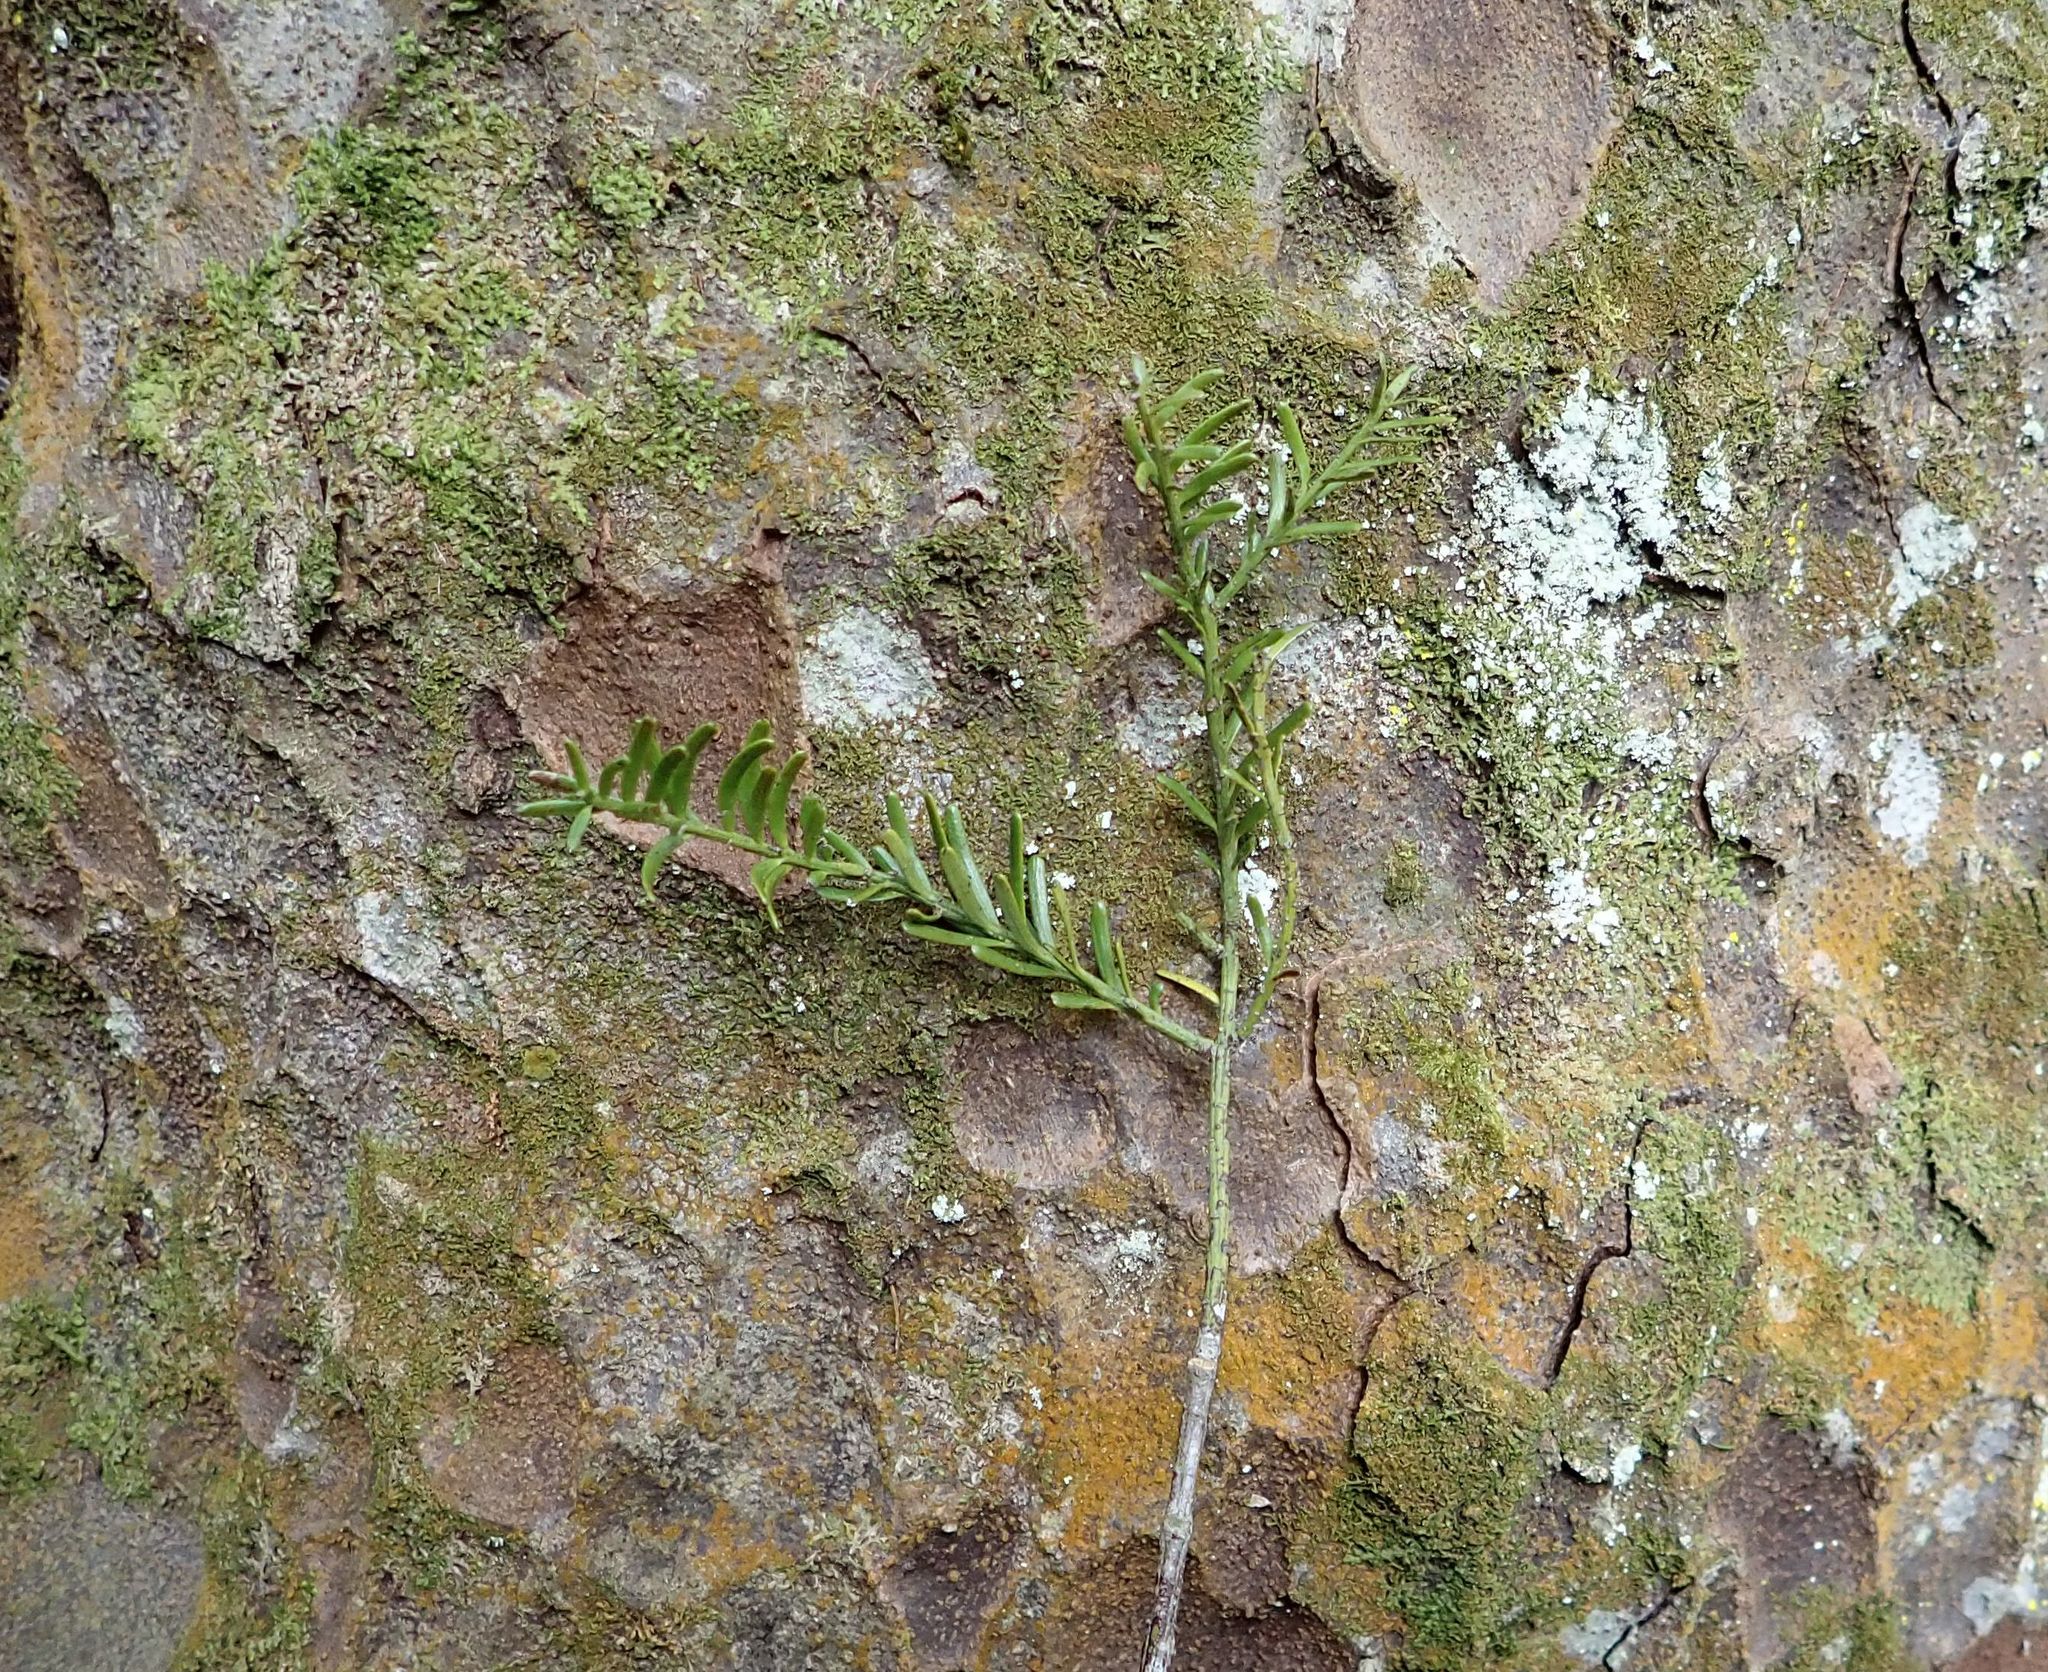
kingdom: Plantae
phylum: Tracheophyta
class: Pinopsida
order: Pinales
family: Podocarpaceae
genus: Prumnopitys
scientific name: Prumnopitys taxifolia
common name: Matai
